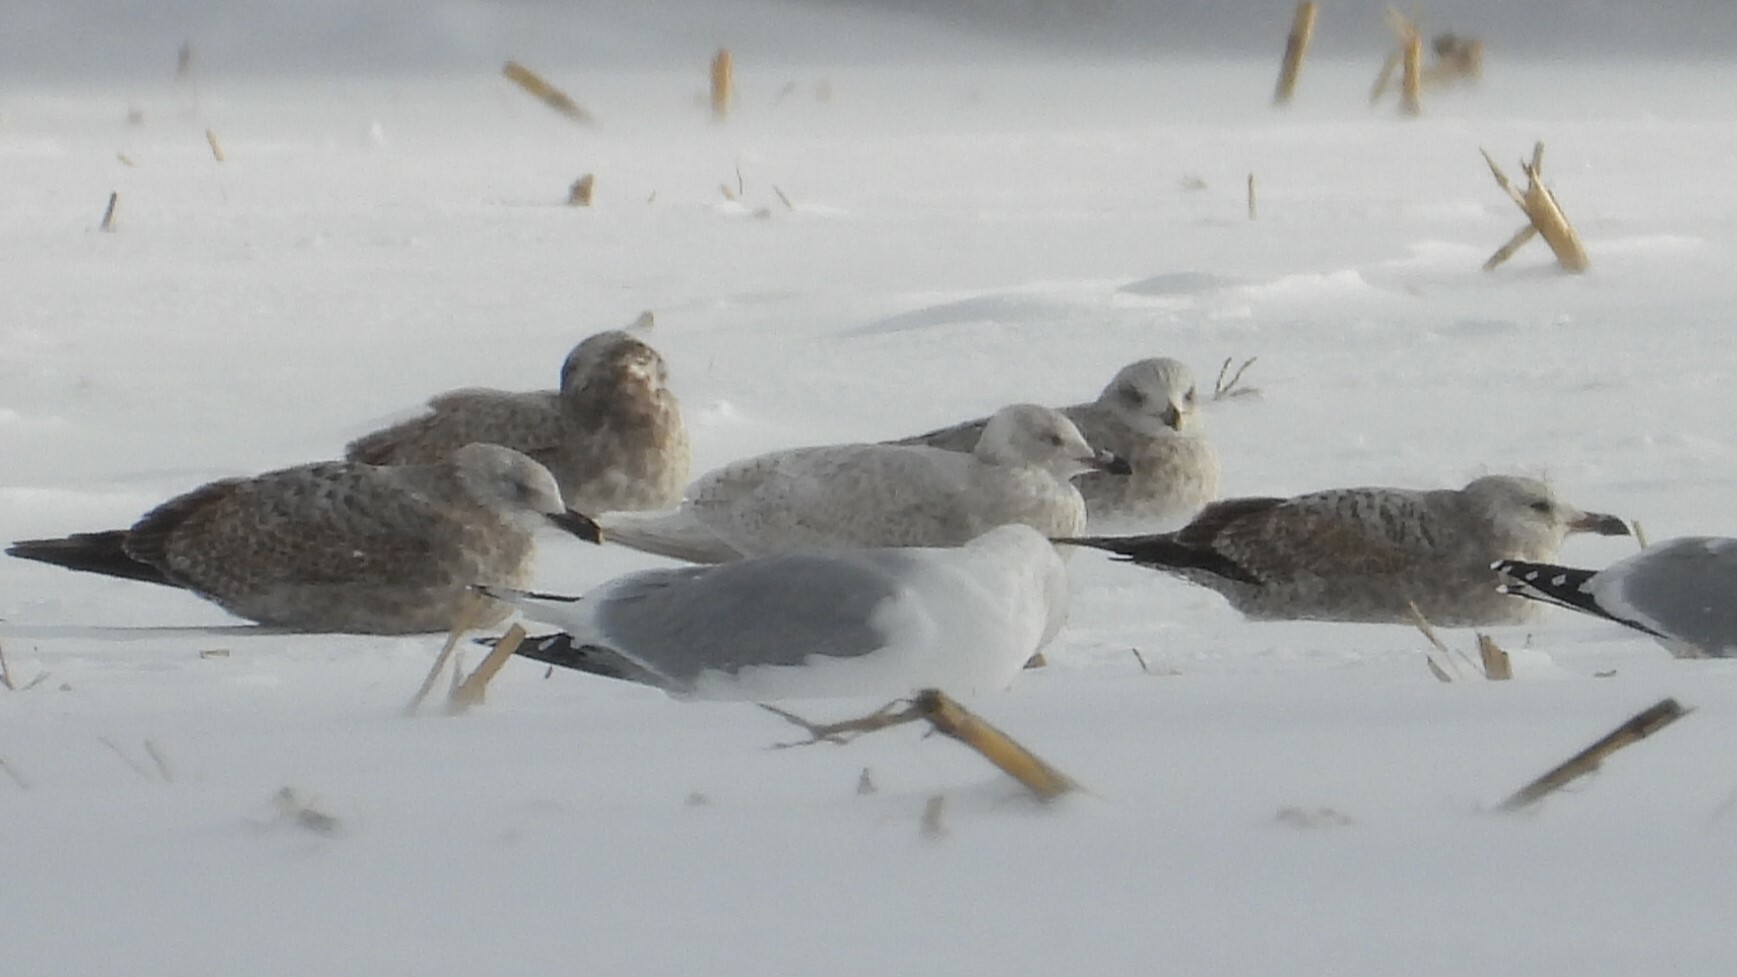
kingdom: Animalia
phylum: Chordata
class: Aves
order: Charadriiformes
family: Laridae
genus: Larus
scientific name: Larus glaucoides
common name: Iceland gull
